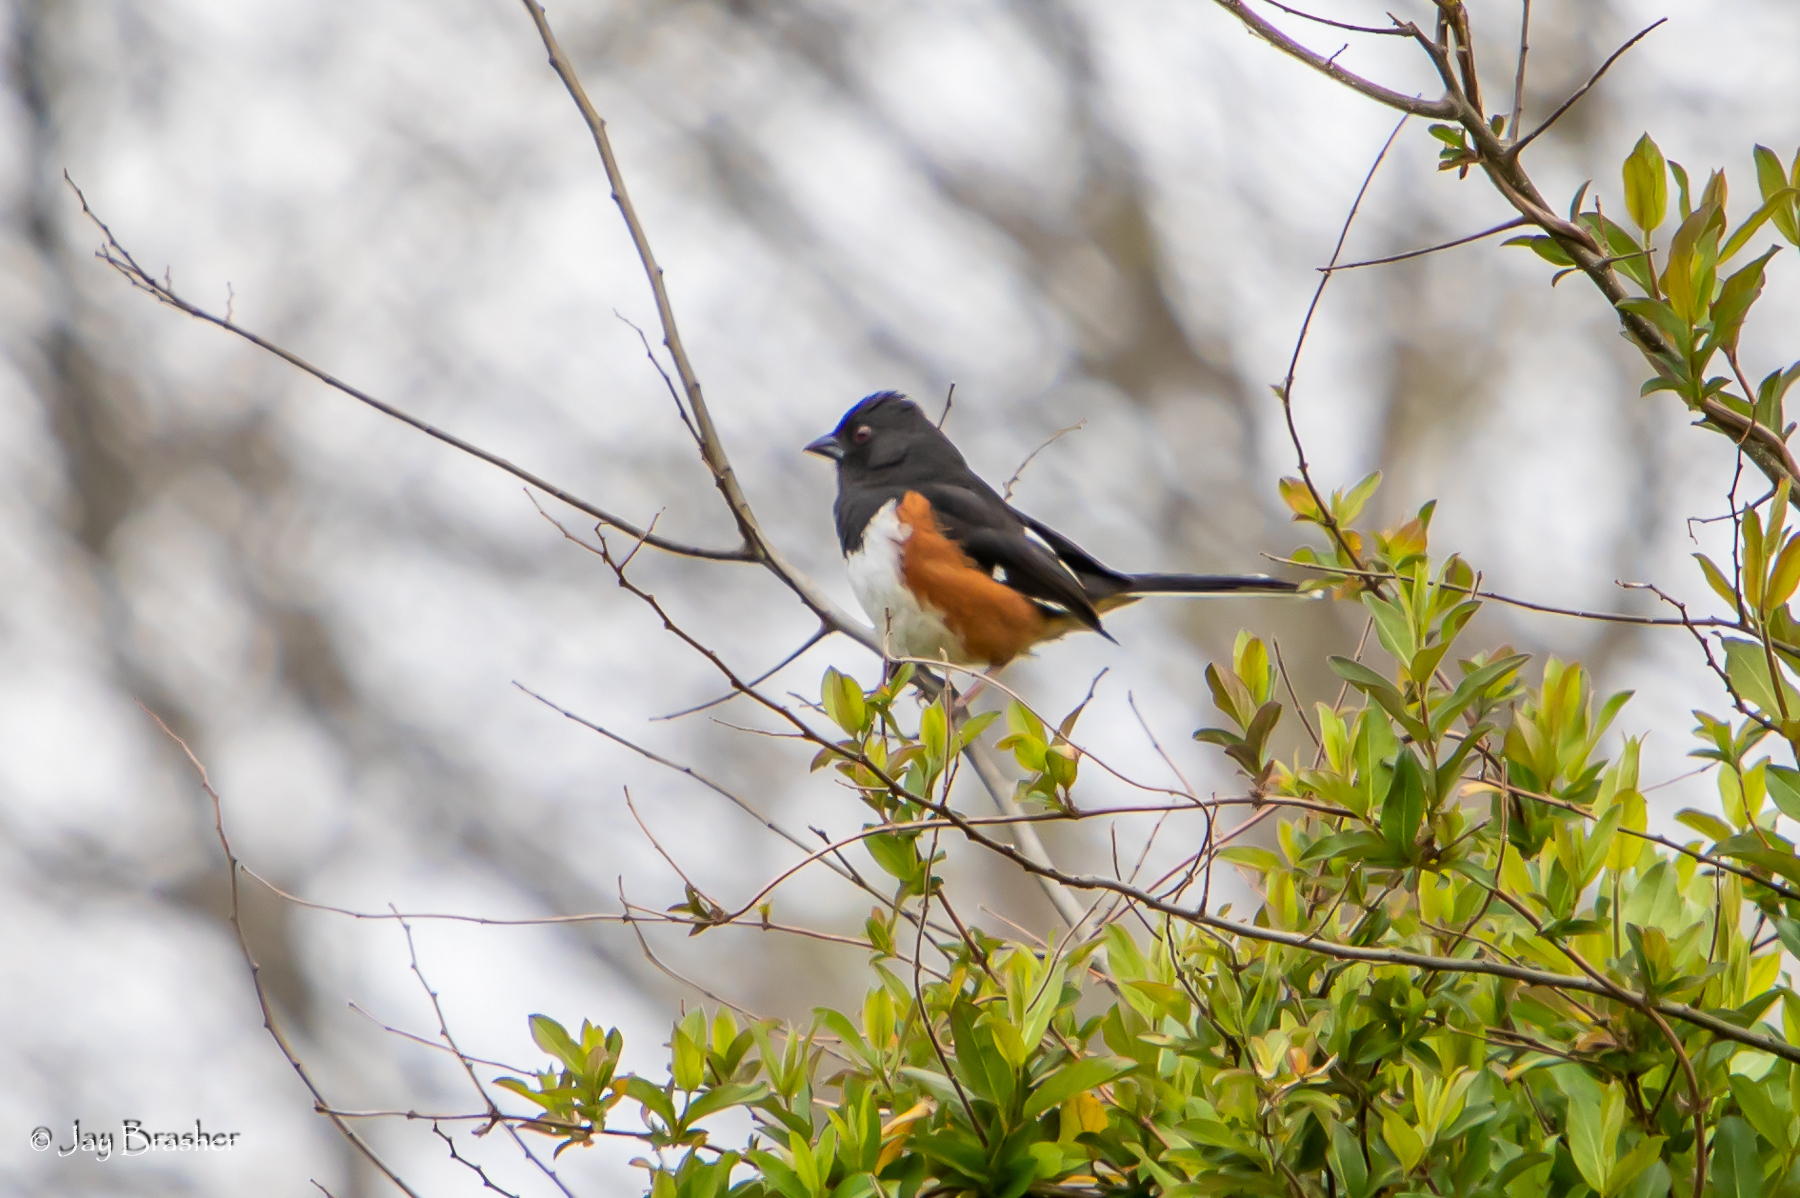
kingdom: Animalia
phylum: Chordata
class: Aves
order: Passeriformes
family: Passerellidae
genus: Pipilo
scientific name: Pipilo erythrophthalmus
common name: Eastern towhee
